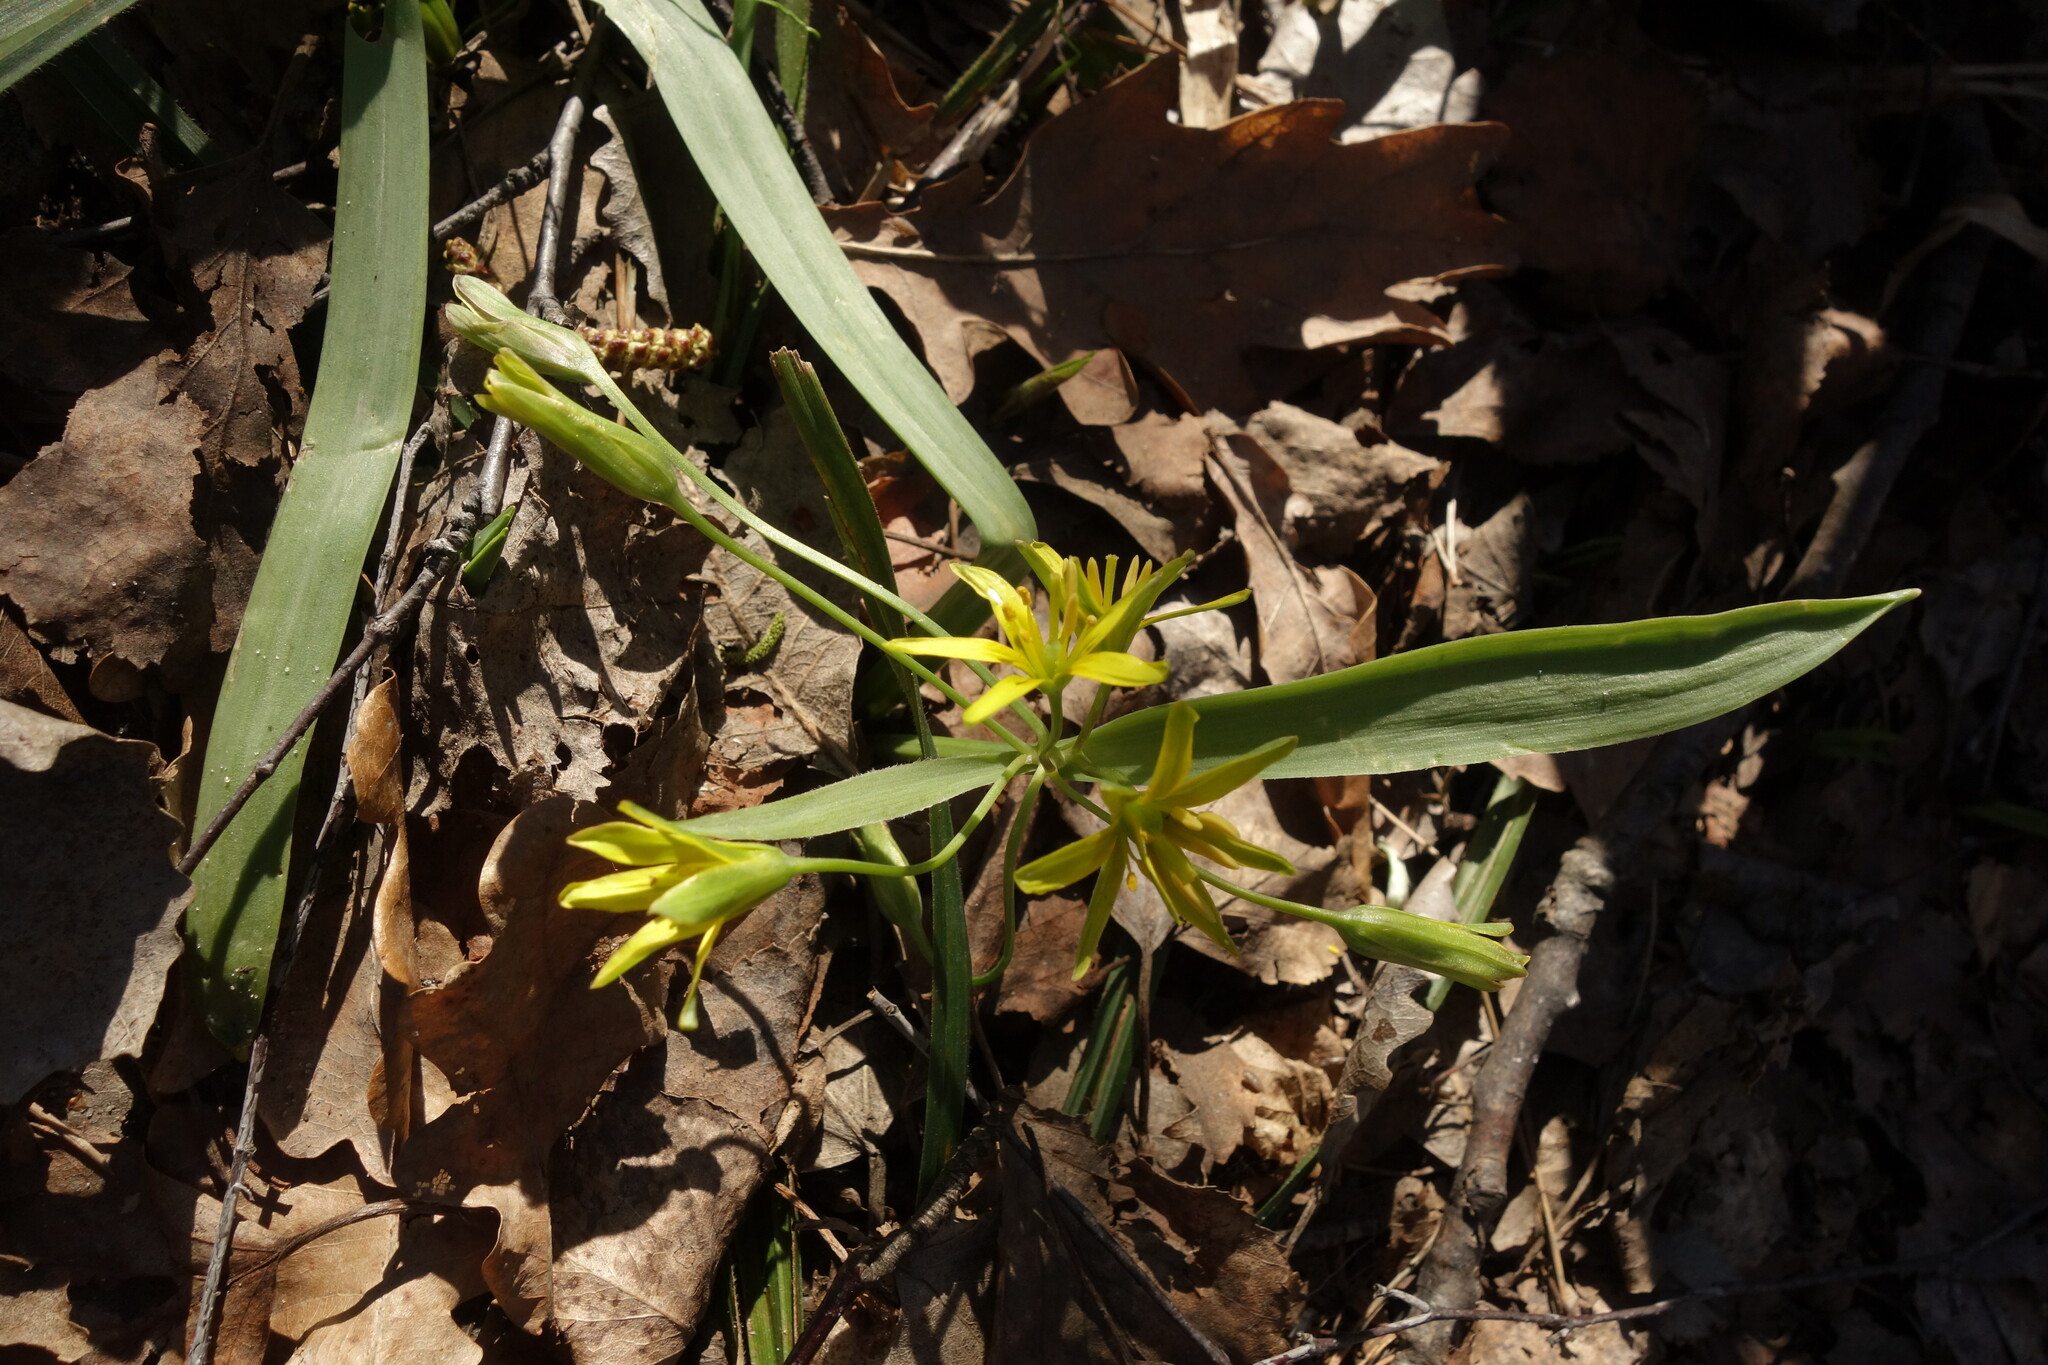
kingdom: Plantae
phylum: Tracheophyta
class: Liliopsida
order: Liliales
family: Liliaceae
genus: Gagea
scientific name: Gagea lutea
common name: Yellow star-of-bethlehem
